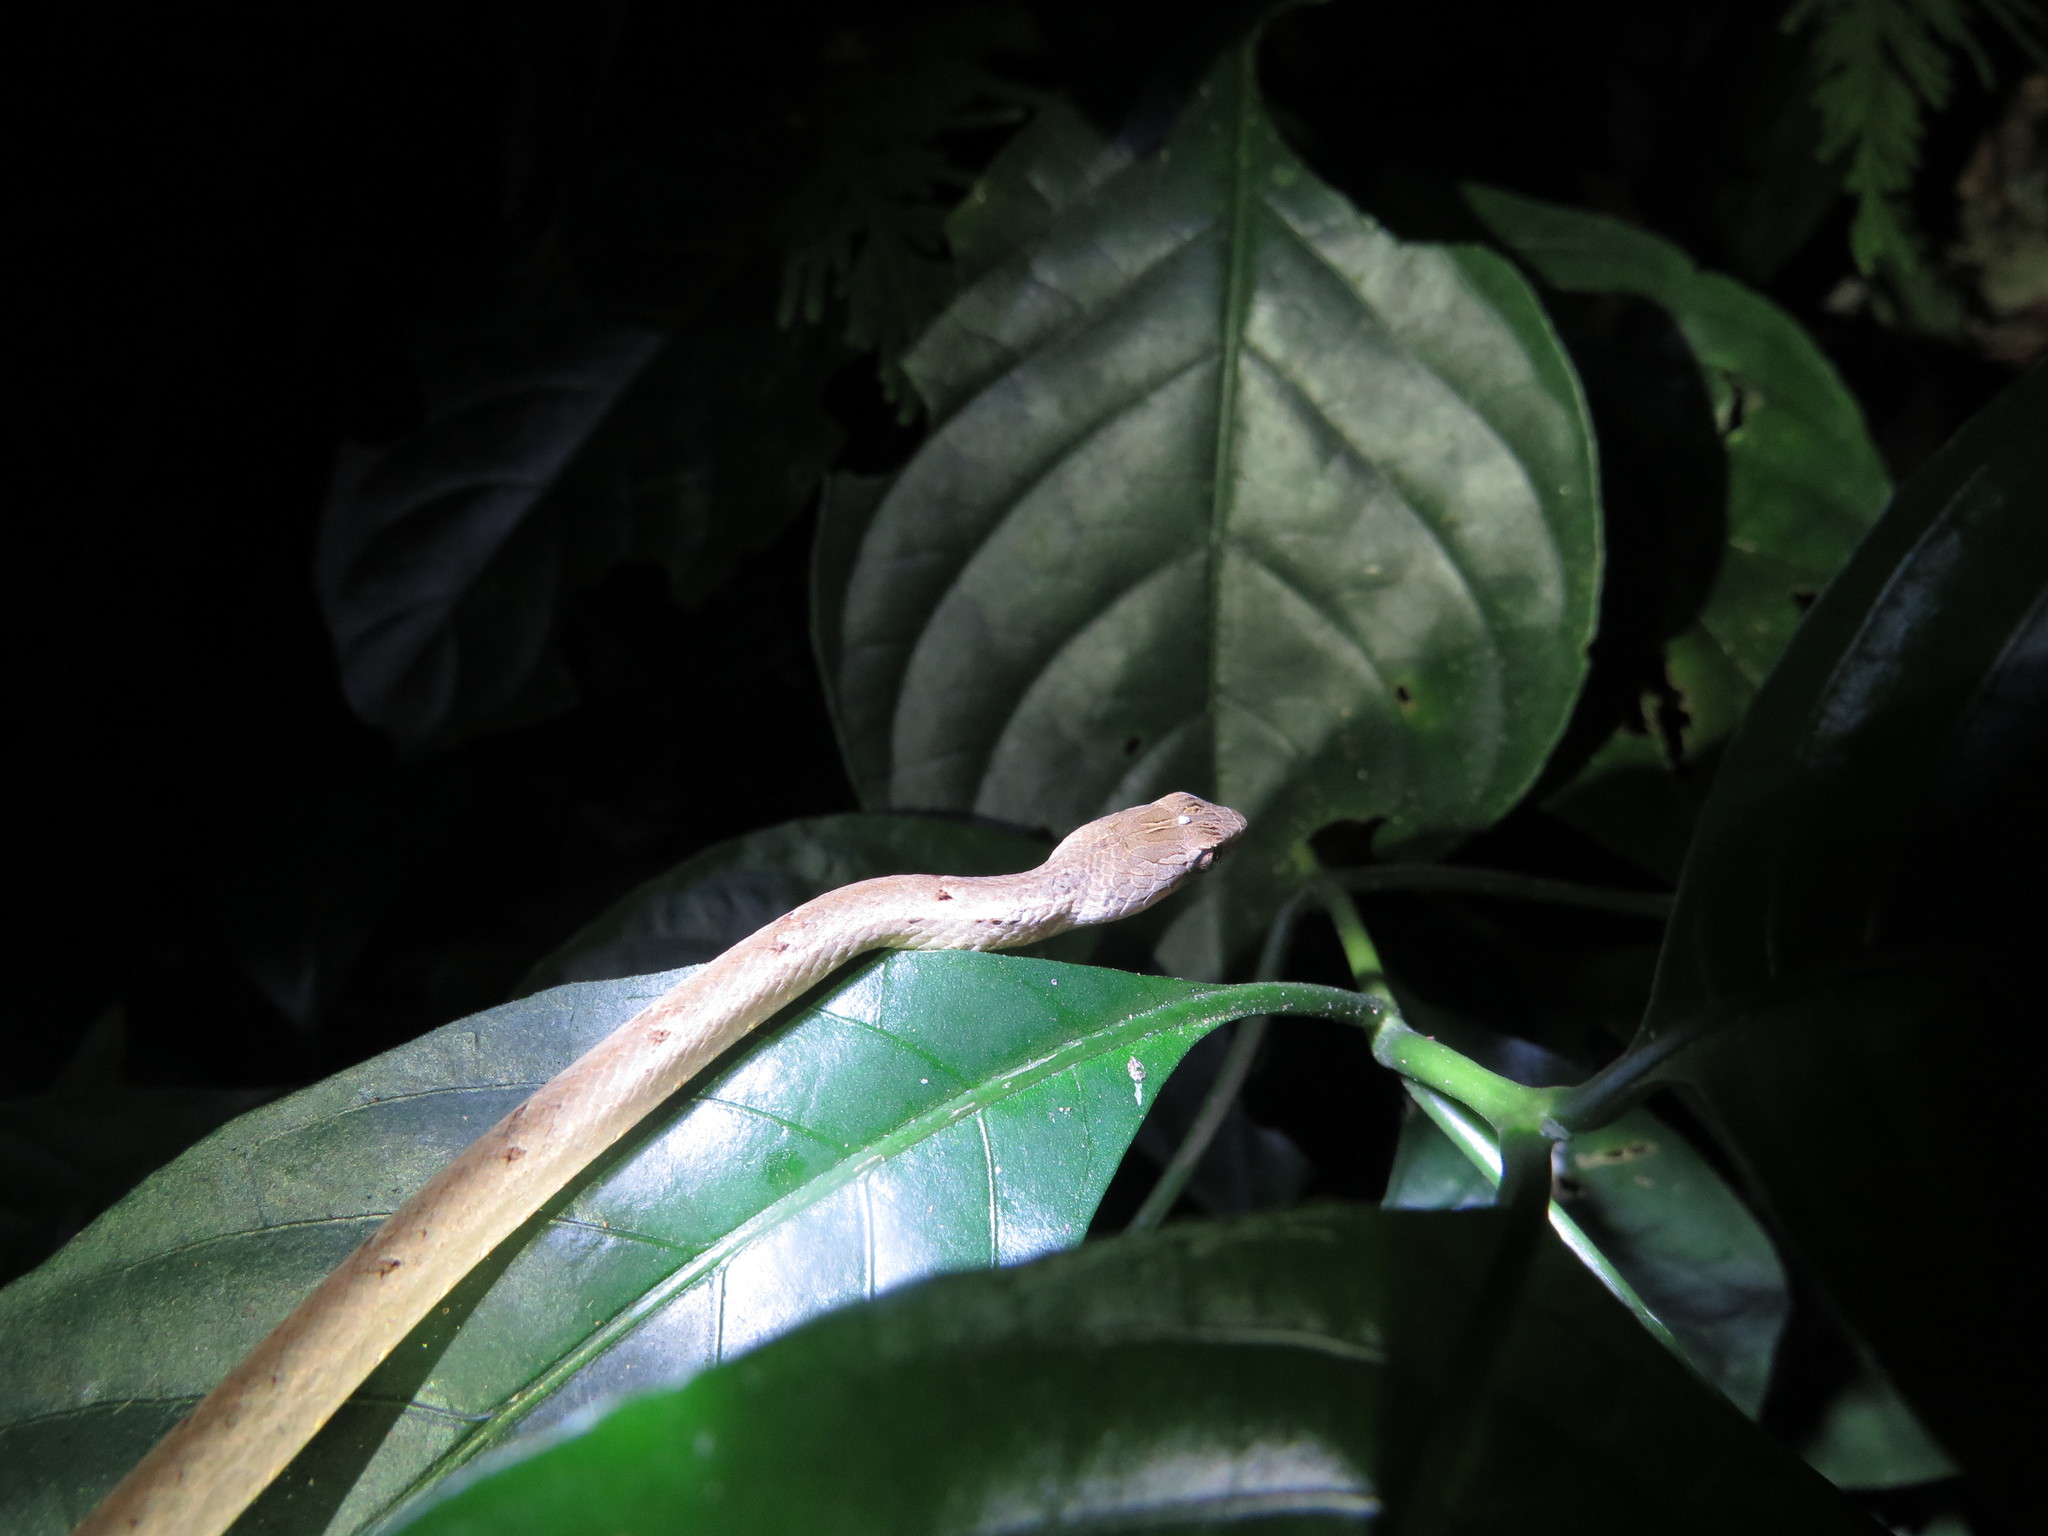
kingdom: Animalia
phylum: Chordata
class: Squamata
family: Pseudaspididae
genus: Psammodynastes
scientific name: Psammodynastes pulverulentus
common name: Common mock viper
